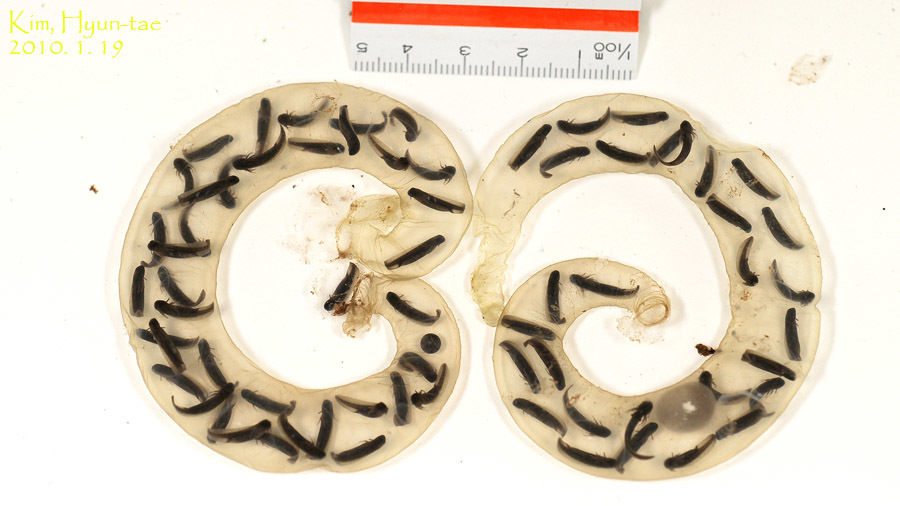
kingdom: Animalia
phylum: Chordata
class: Amphibia
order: Caudata
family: Hynobiidae
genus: Hynobius
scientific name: Hynobius leechii
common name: Gensan salamander
